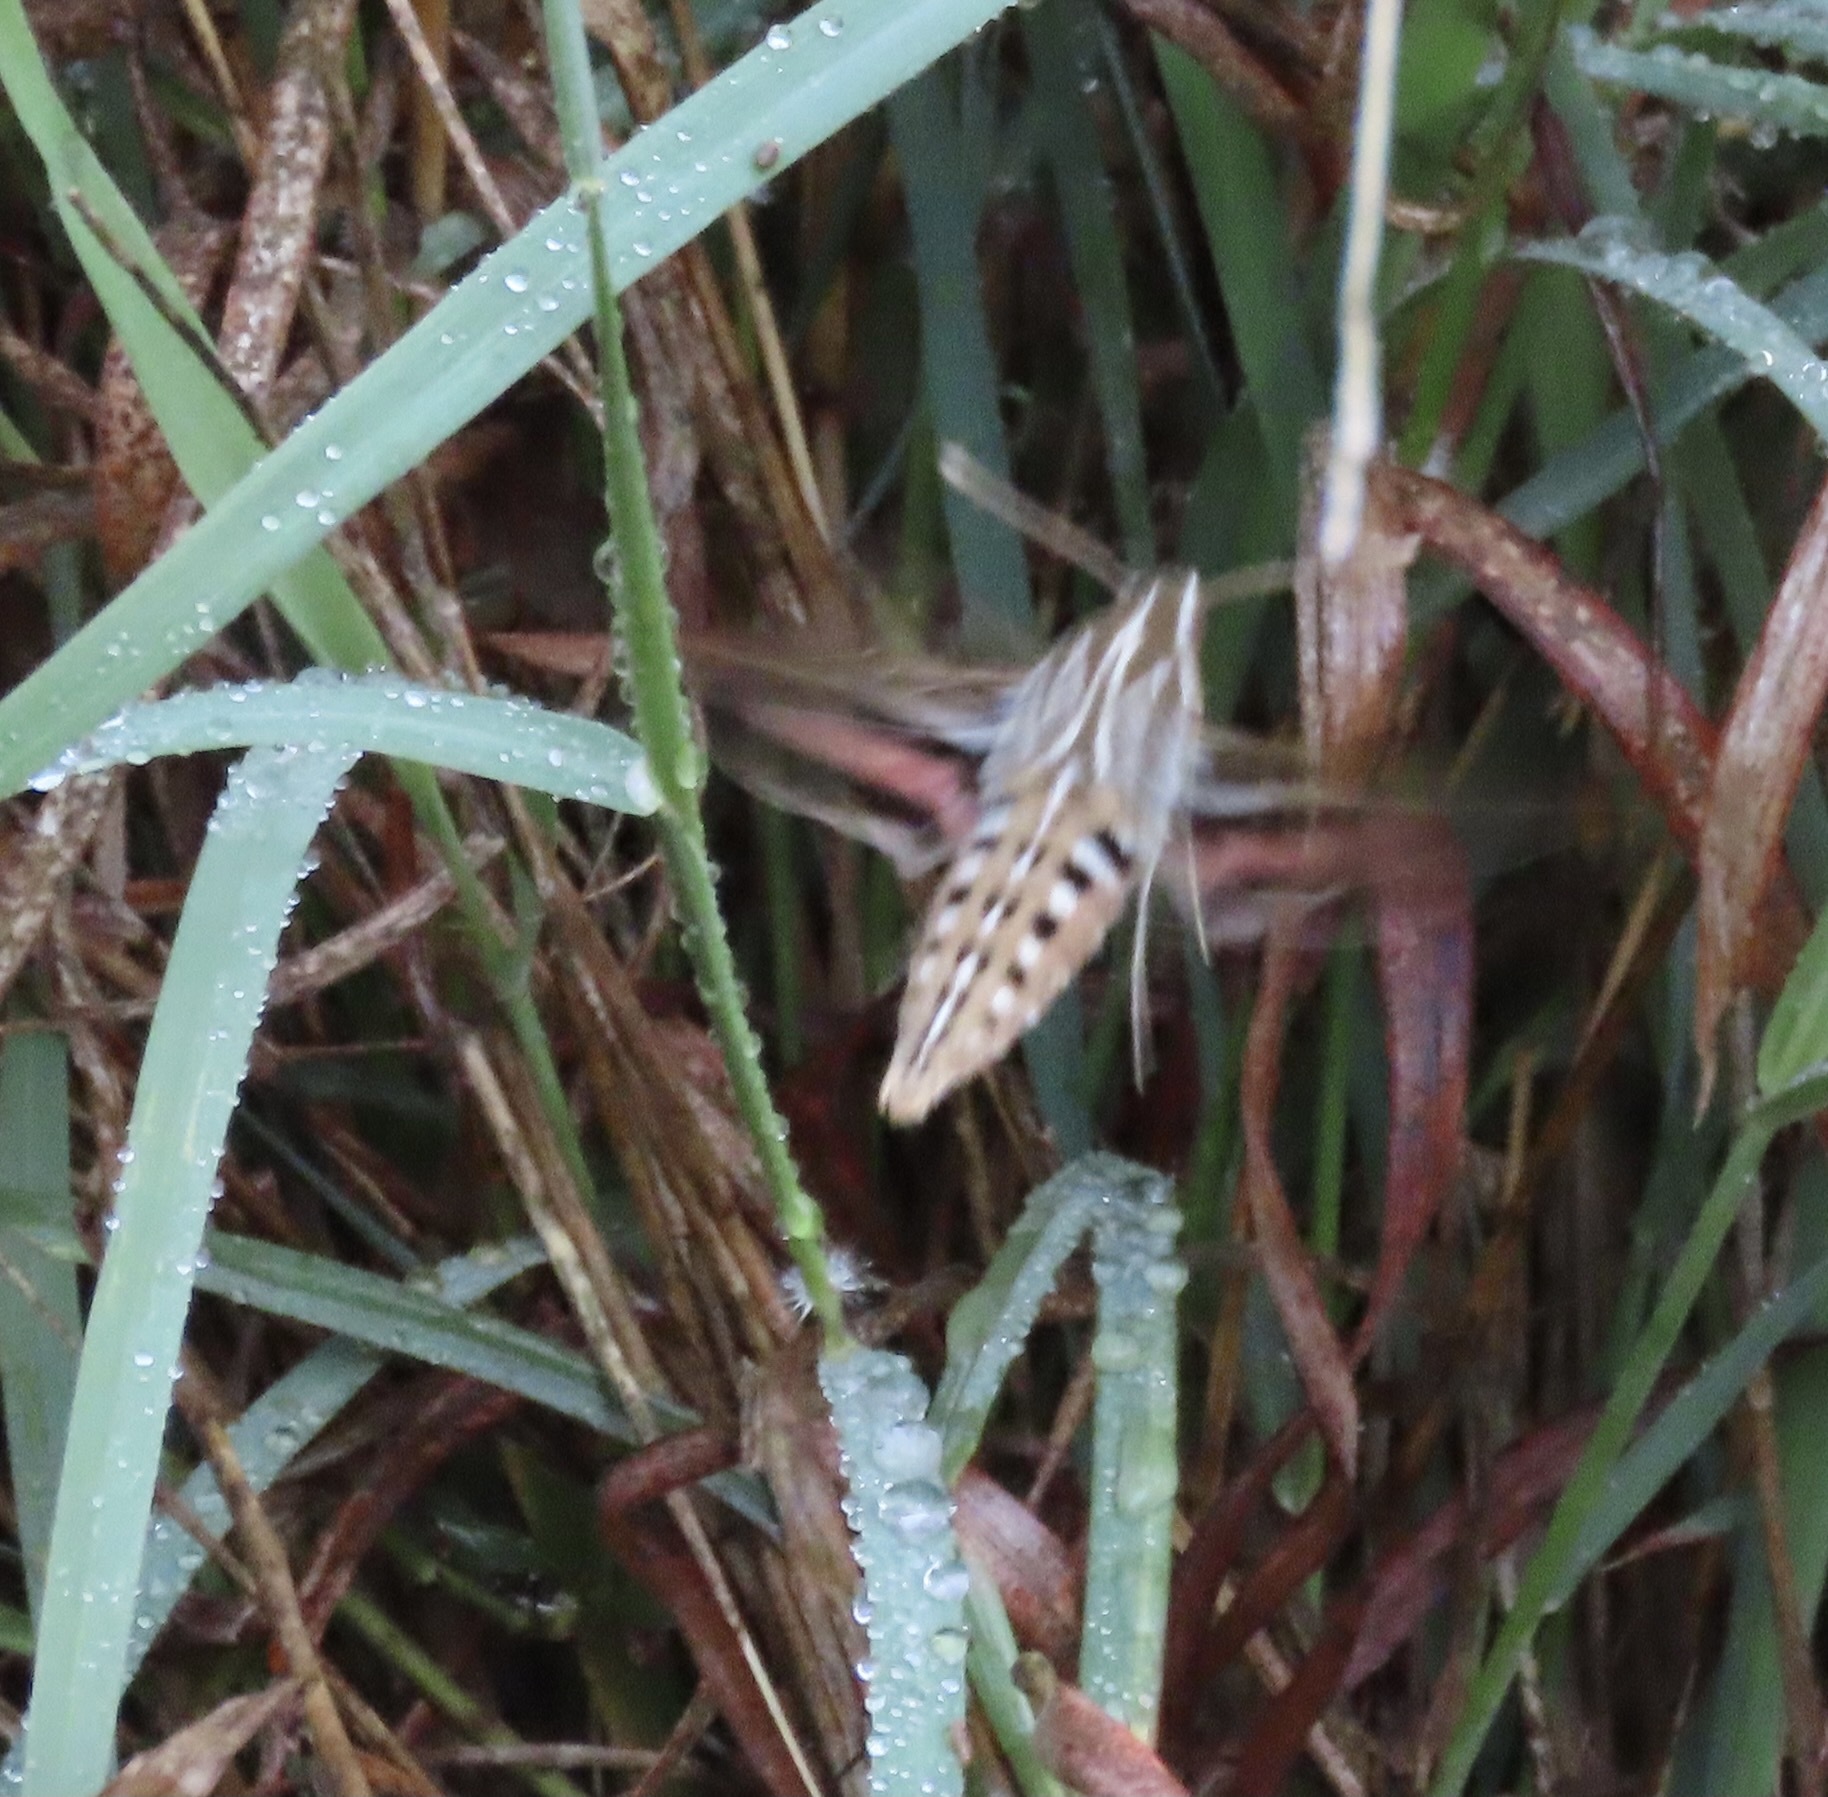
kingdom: Animalia
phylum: Arthropoda
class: Insecta
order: Lepidoptera
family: Sphingidae
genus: Hyles
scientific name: Hyles lineata
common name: White-lined sphinx
